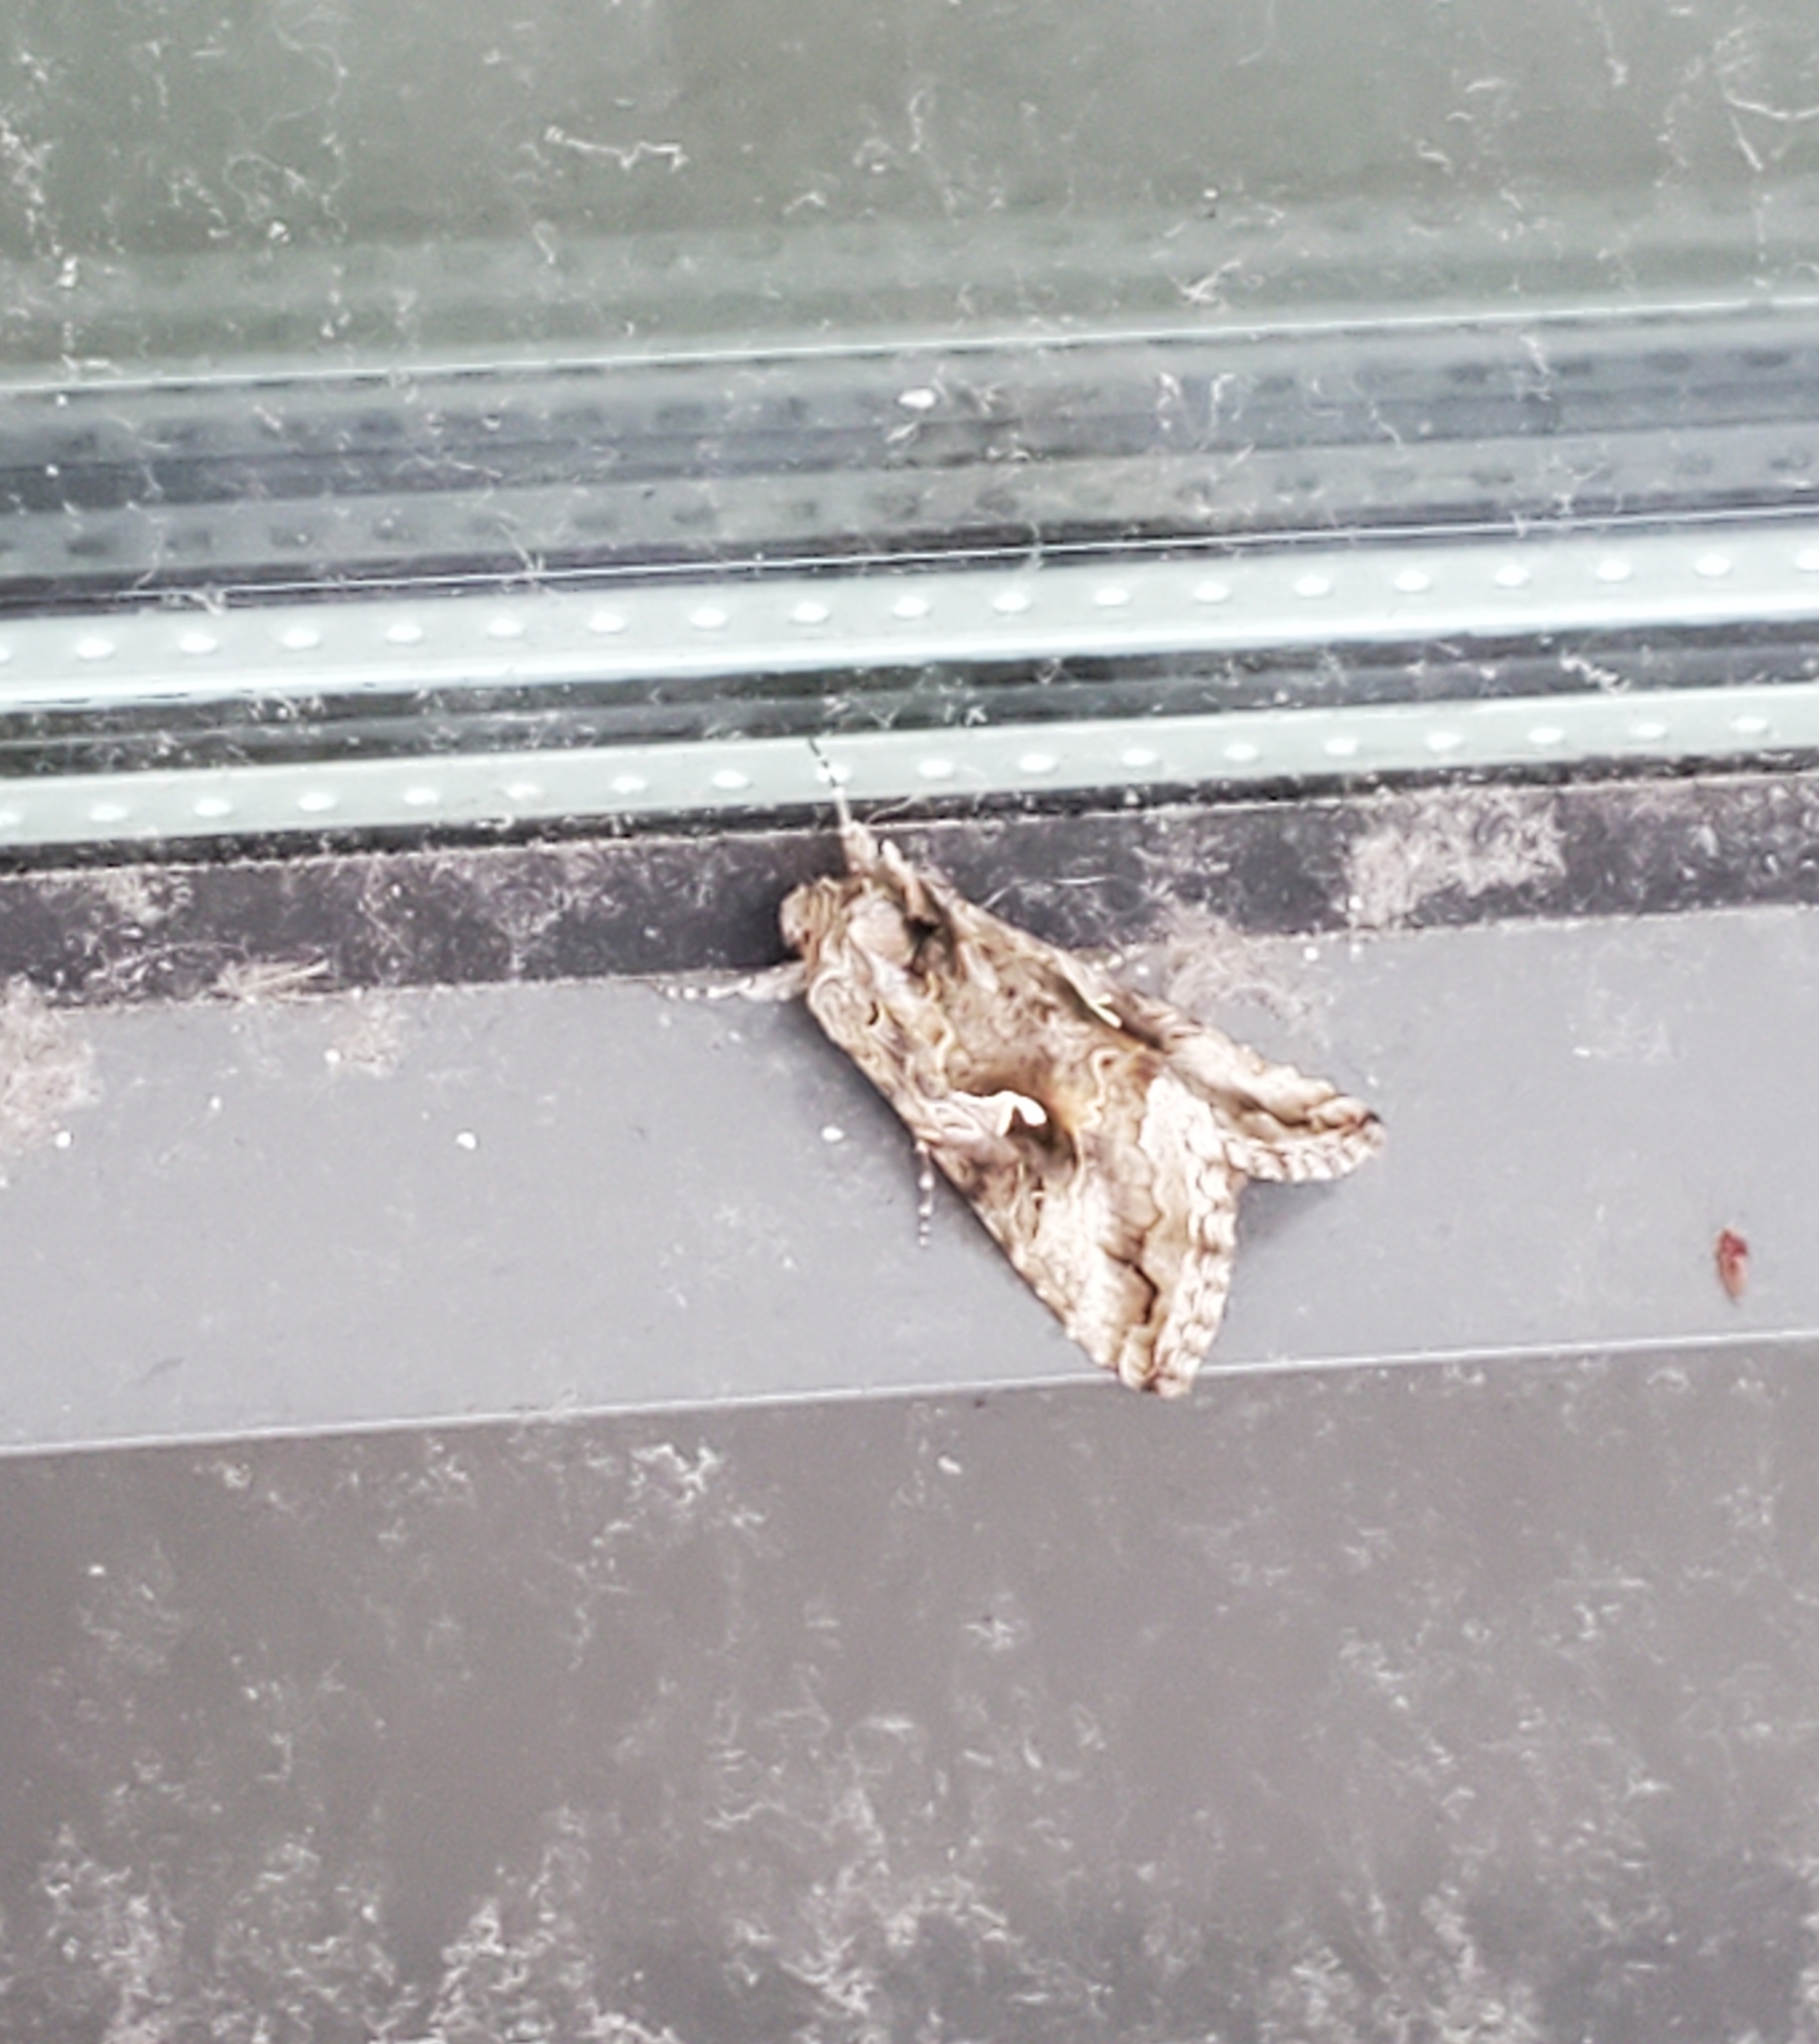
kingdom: Animalia
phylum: Arthropoda
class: Insecta
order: Lepidoptera
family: Noctuidae
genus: Autographa
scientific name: Autographa californica
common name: Alfalfa looper
